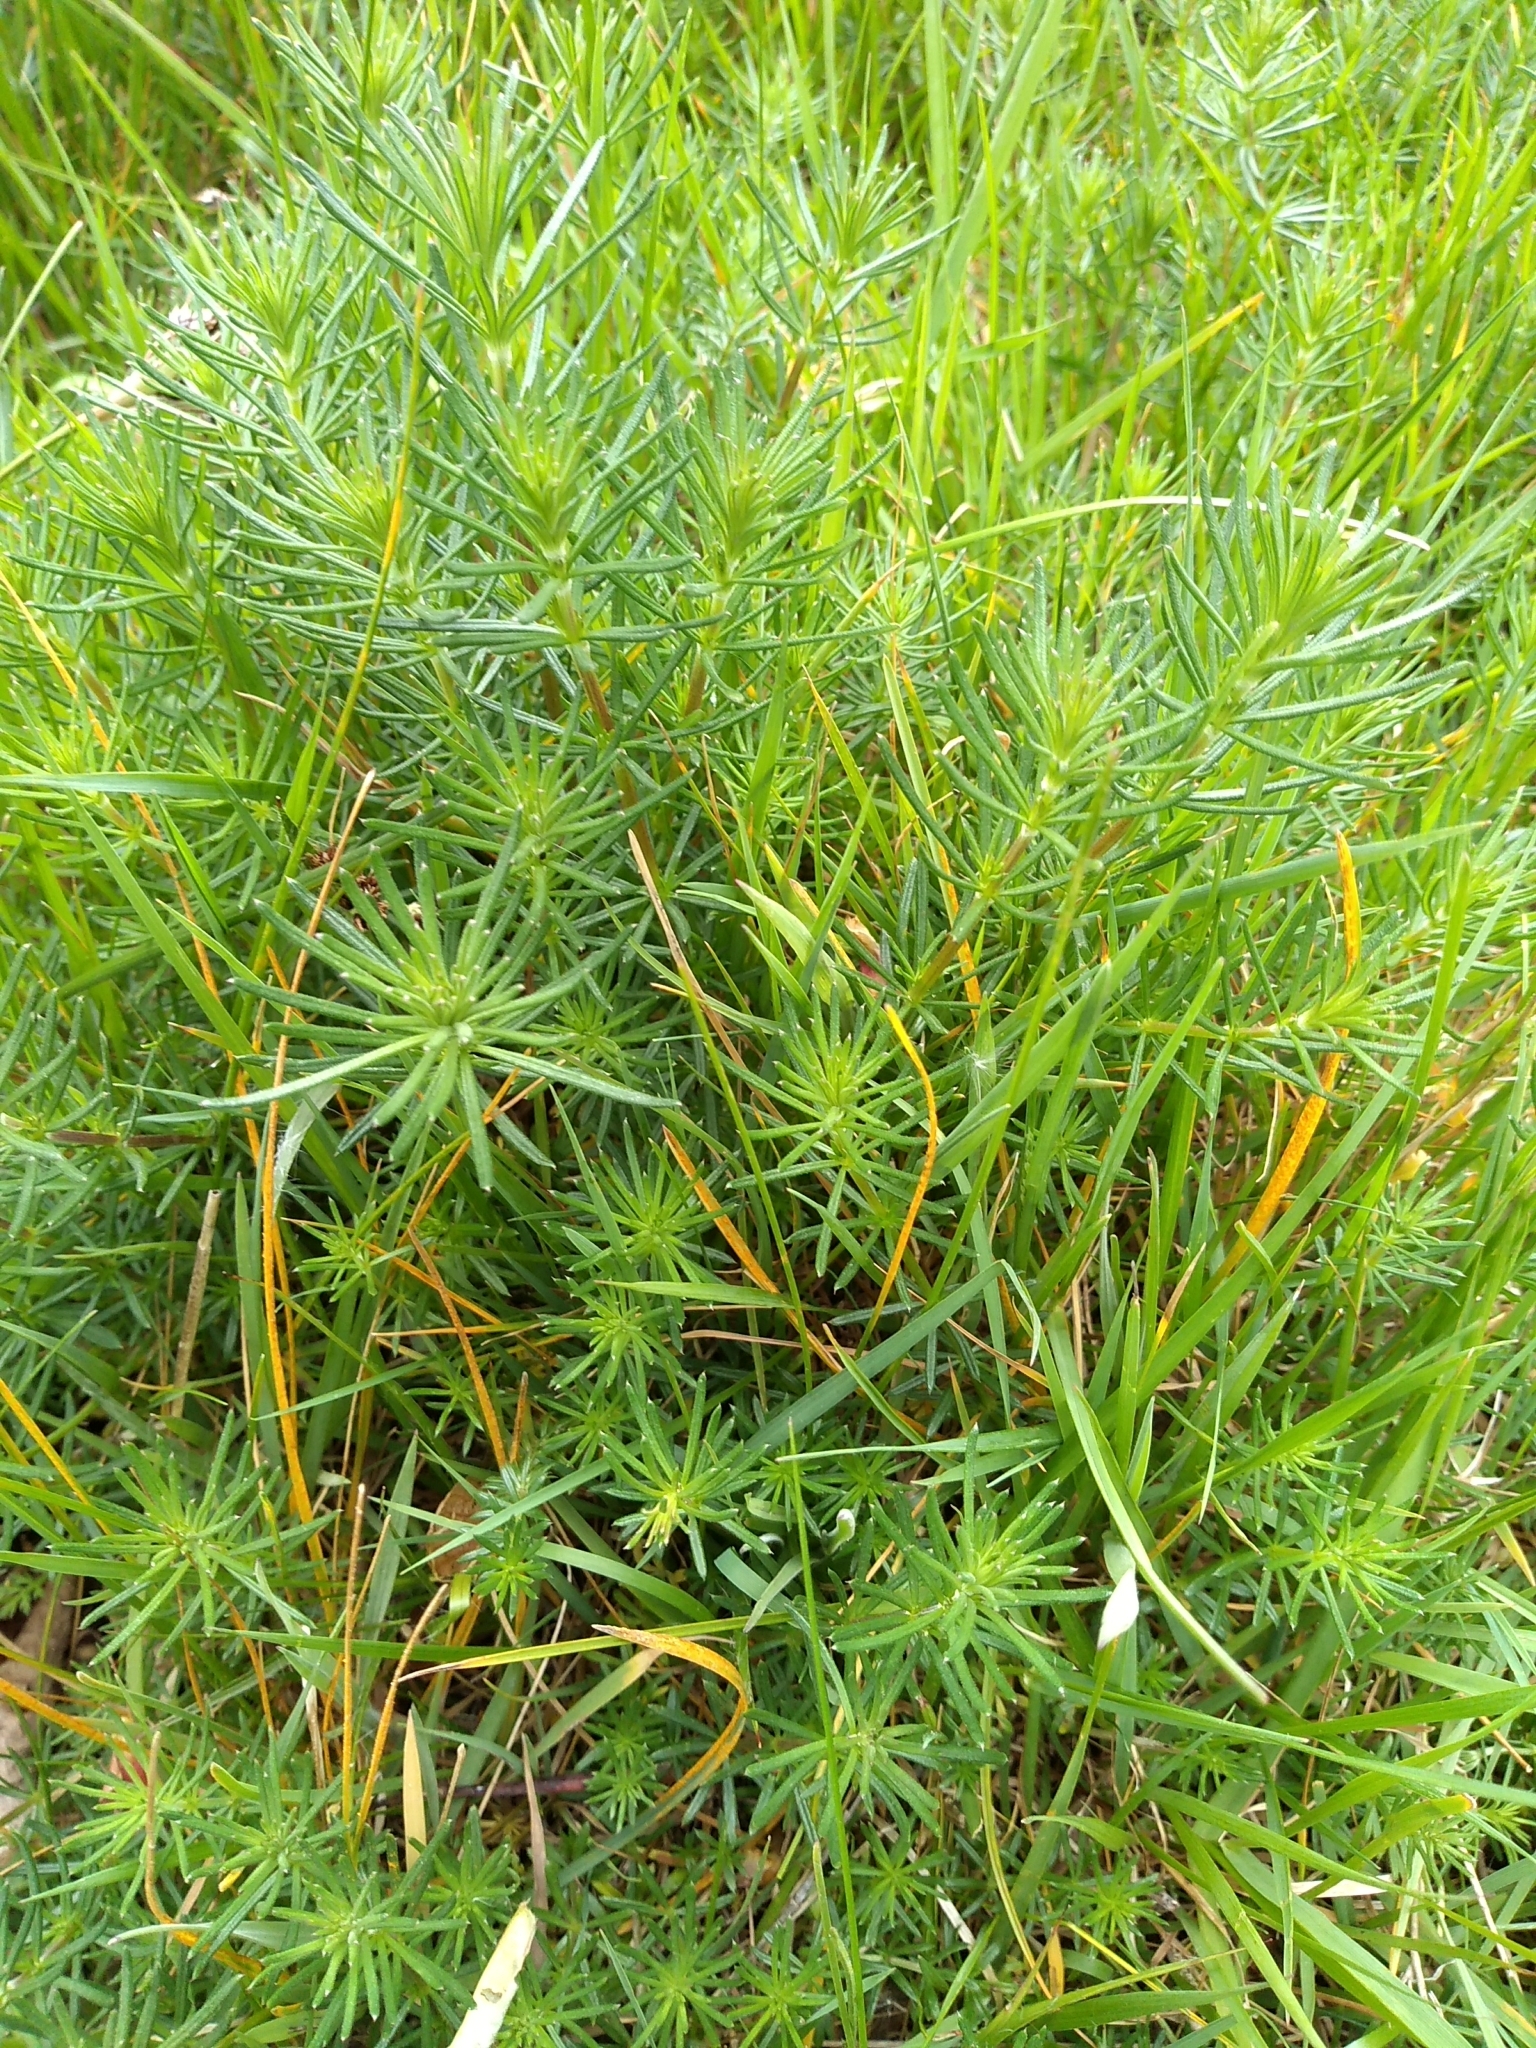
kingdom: Plantae
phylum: Tracheophyta
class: Magnoliopsida
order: Gentianales
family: Rubiaceae
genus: Galium
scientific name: Galium verum
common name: Lady's bedstraw
